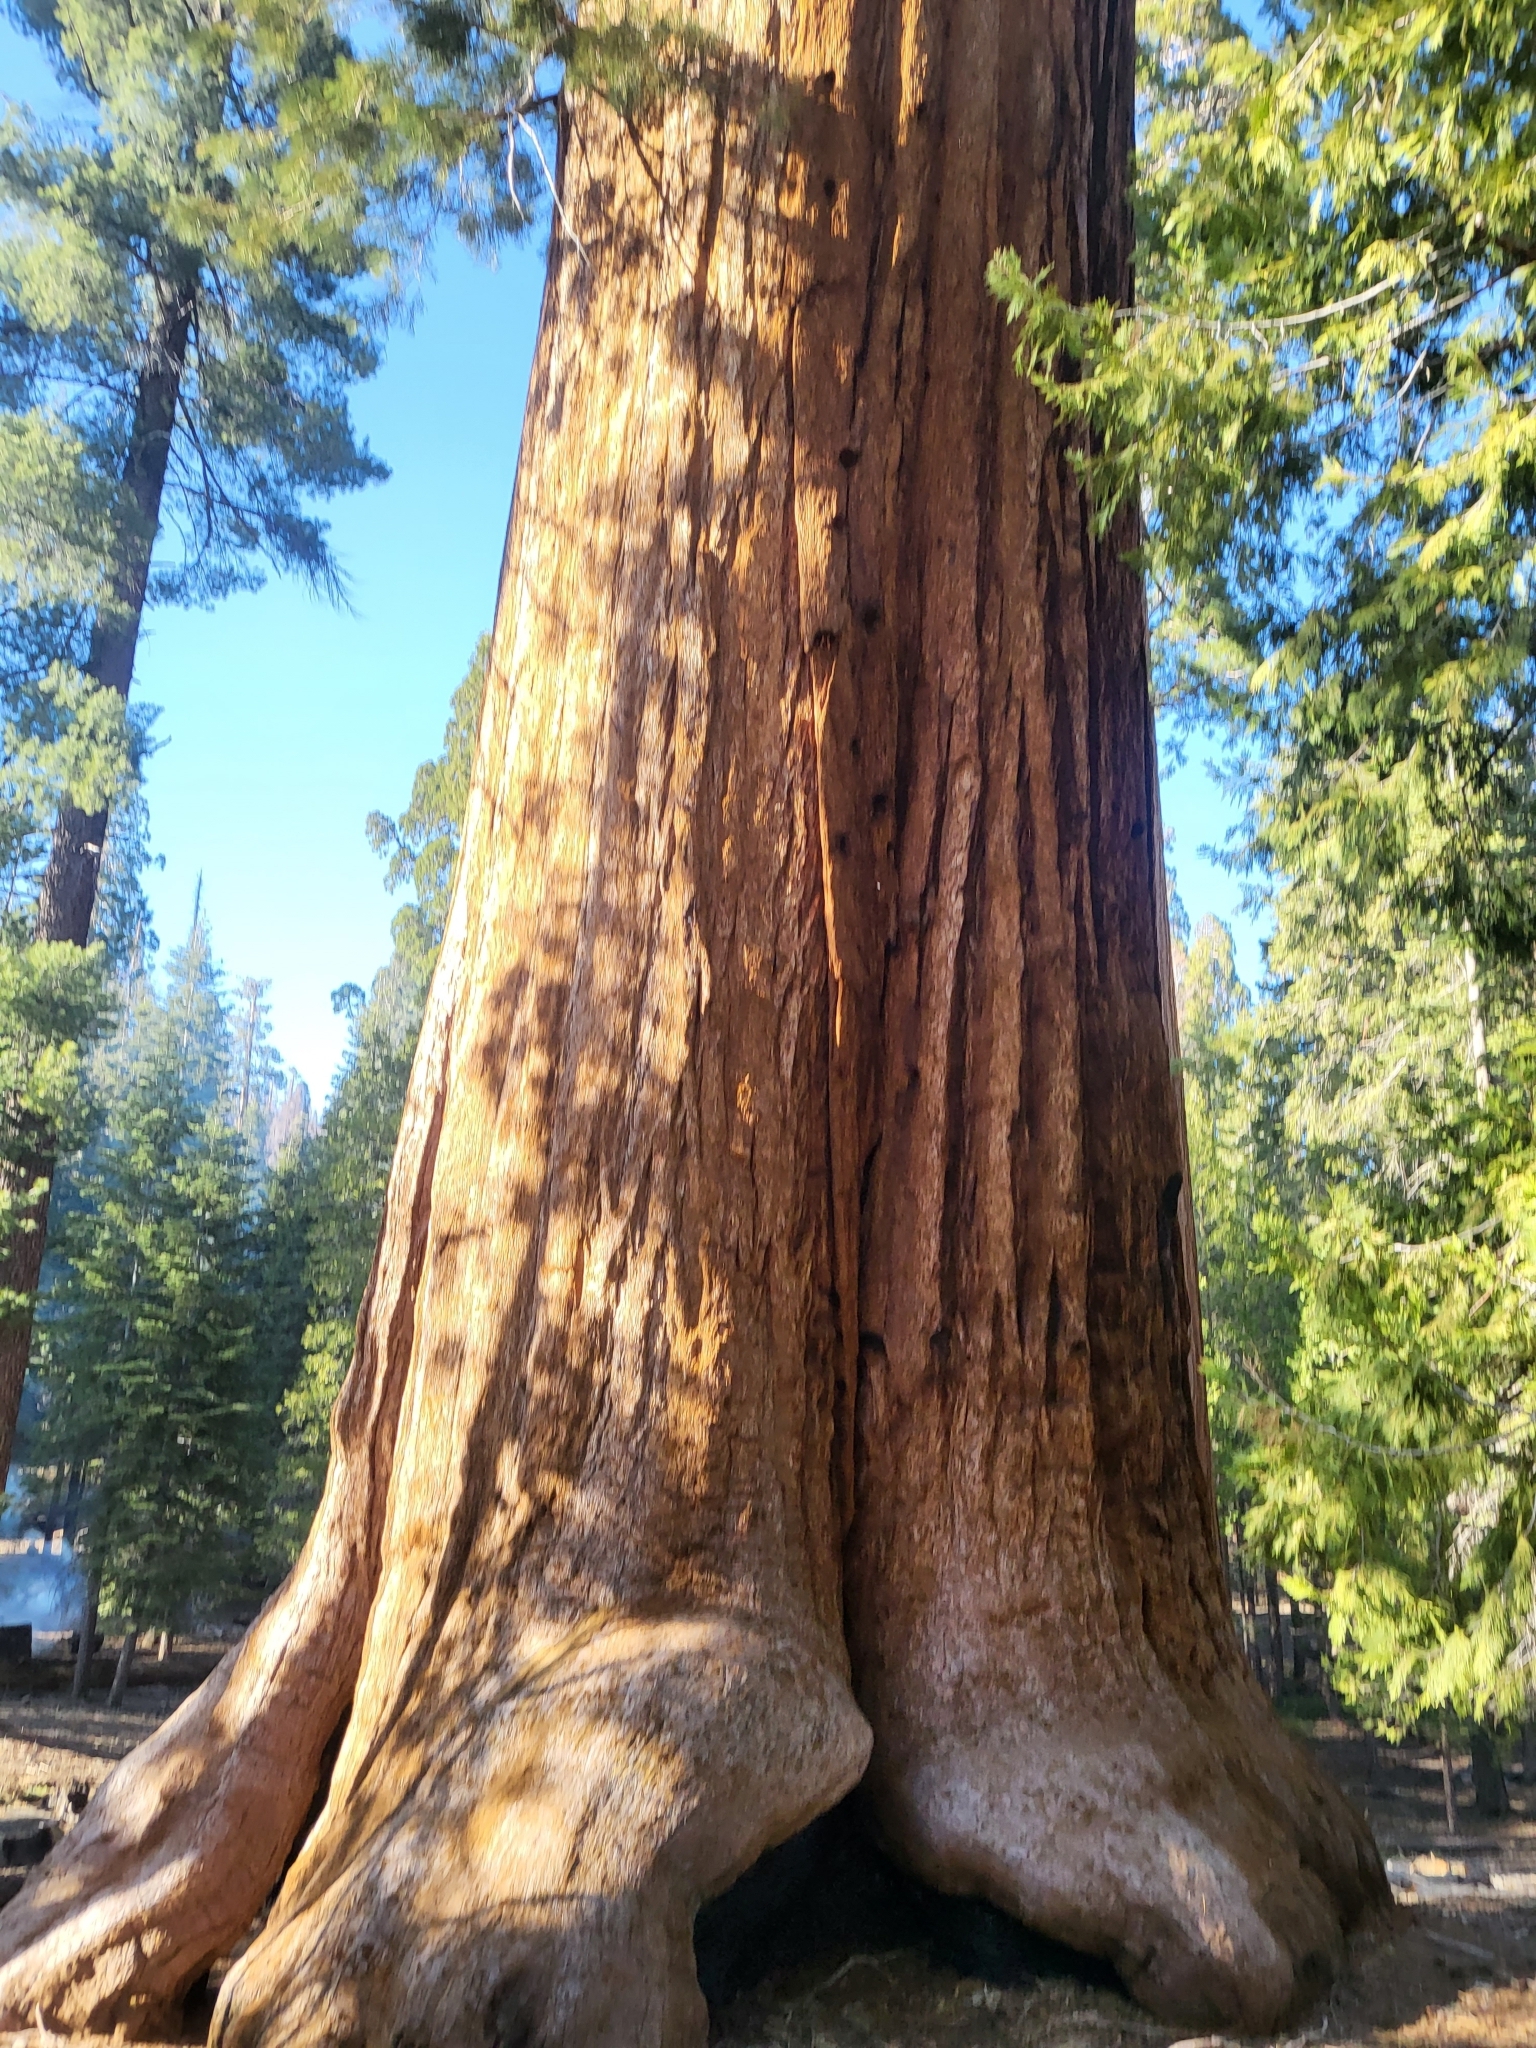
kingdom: Plantae
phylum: Tracheophyta
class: Pinopsida
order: Pinales
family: Cupressaceae
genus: Sequoiadendron
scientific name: Sequoiadendron giganteum
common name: Wellingtonia
